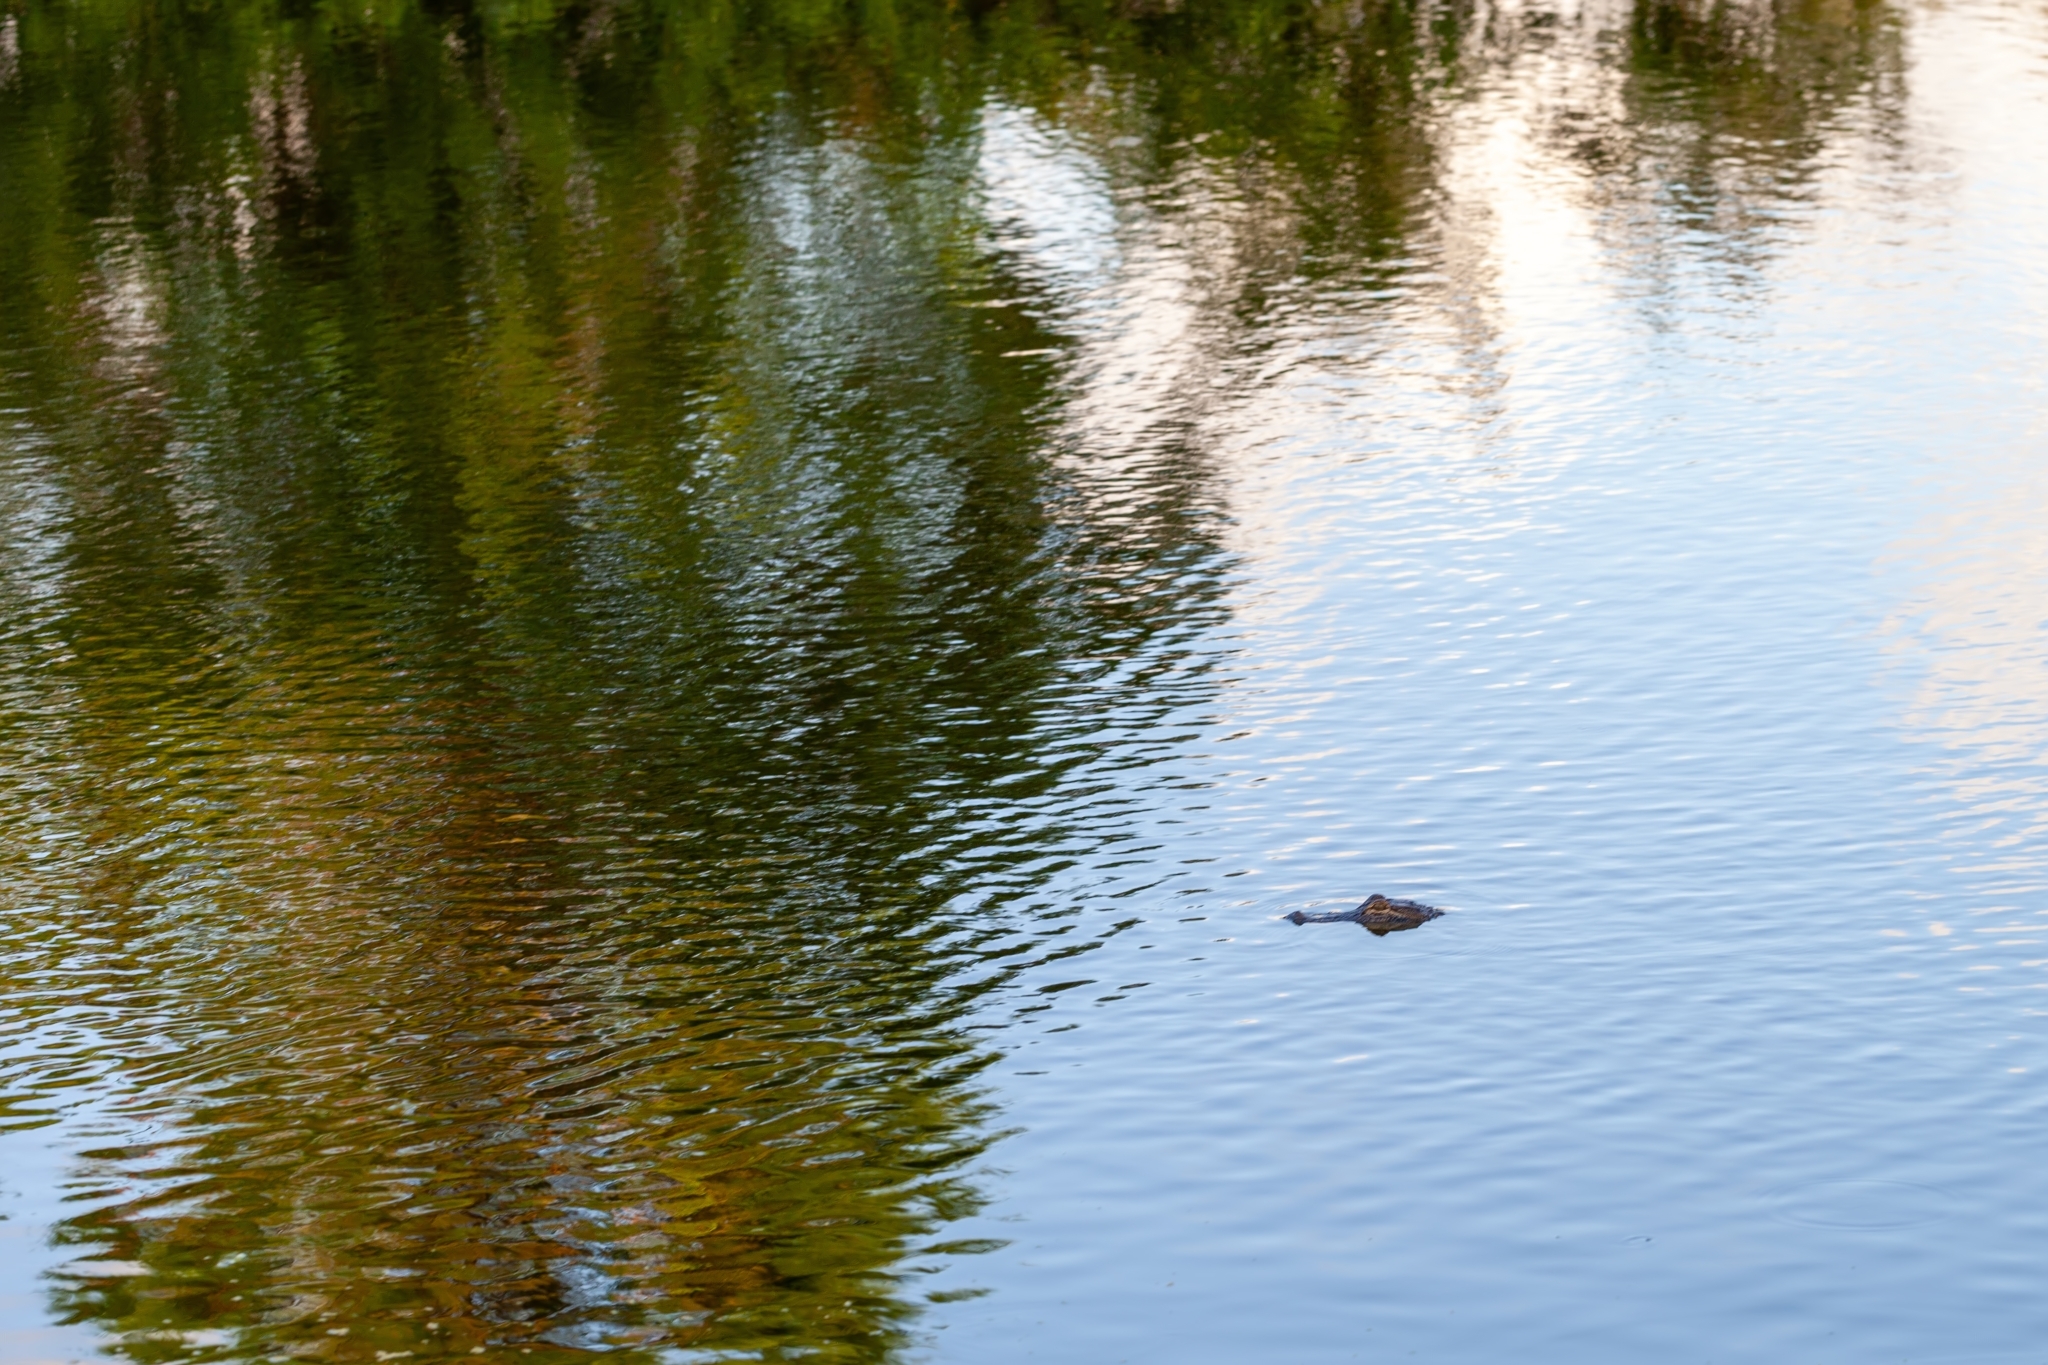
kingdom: Animalia
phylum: Chordata
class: Crocodylia
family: Alligatoridae
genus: Alligator
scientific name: Alligator mississippiensis
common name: American alligator
